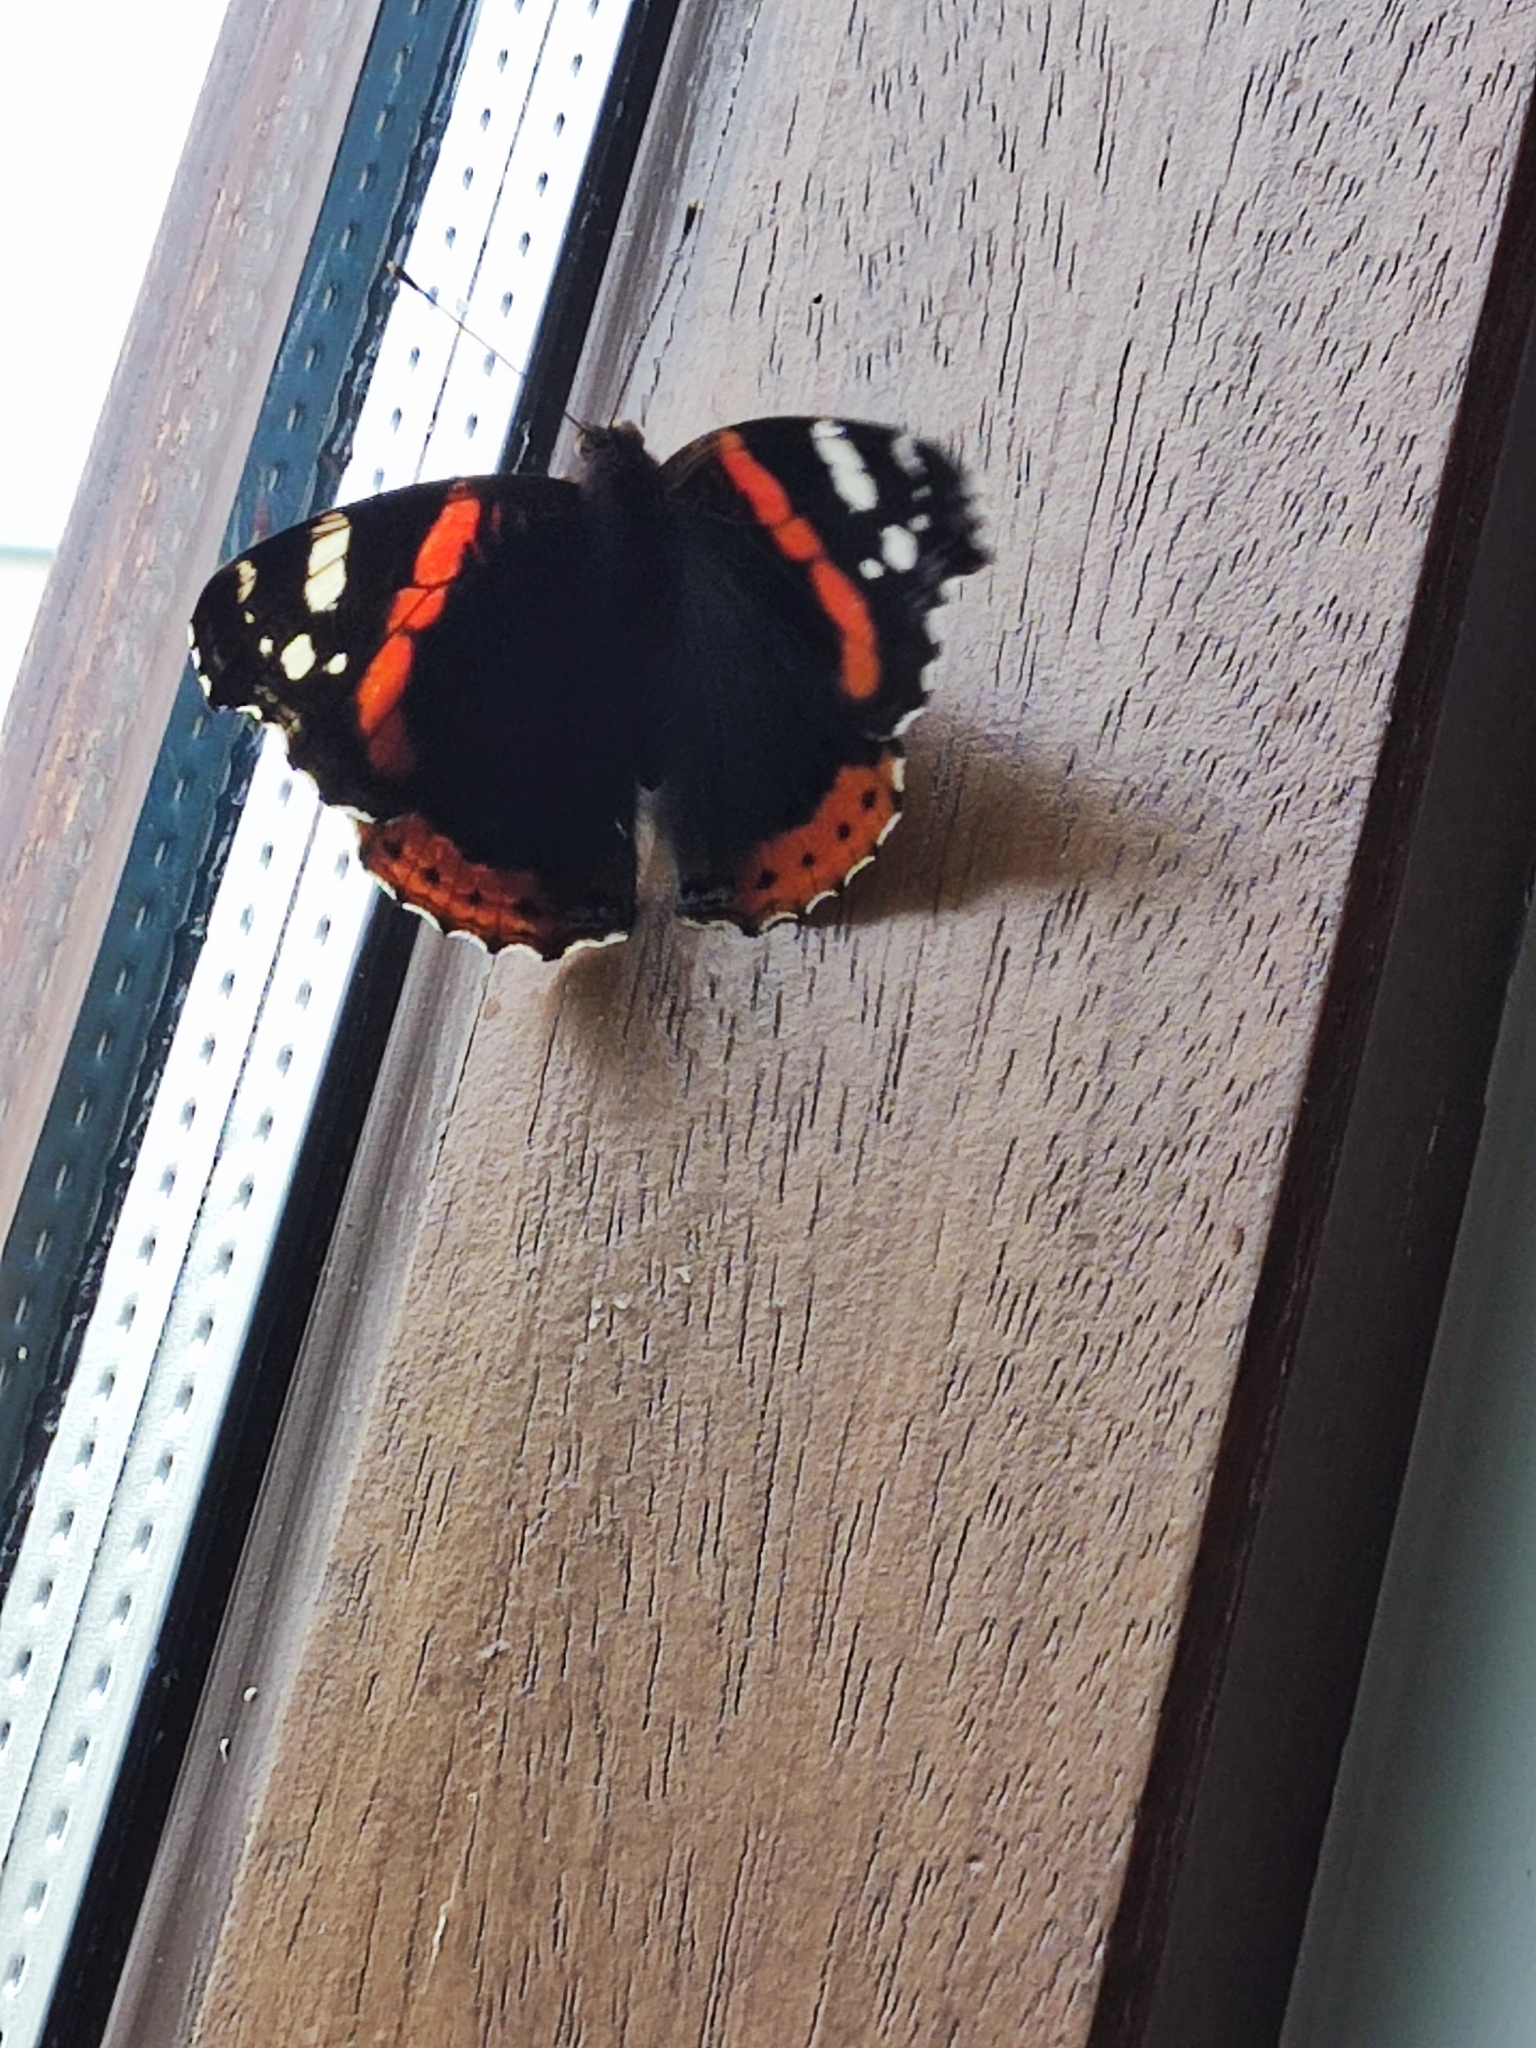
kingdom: Animalia
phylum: Arthropoda
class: Insecta
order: Lepidoptera
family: Nymphalidae
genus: Vanessa
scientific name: Vanessa atalanta
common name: Red admiral
